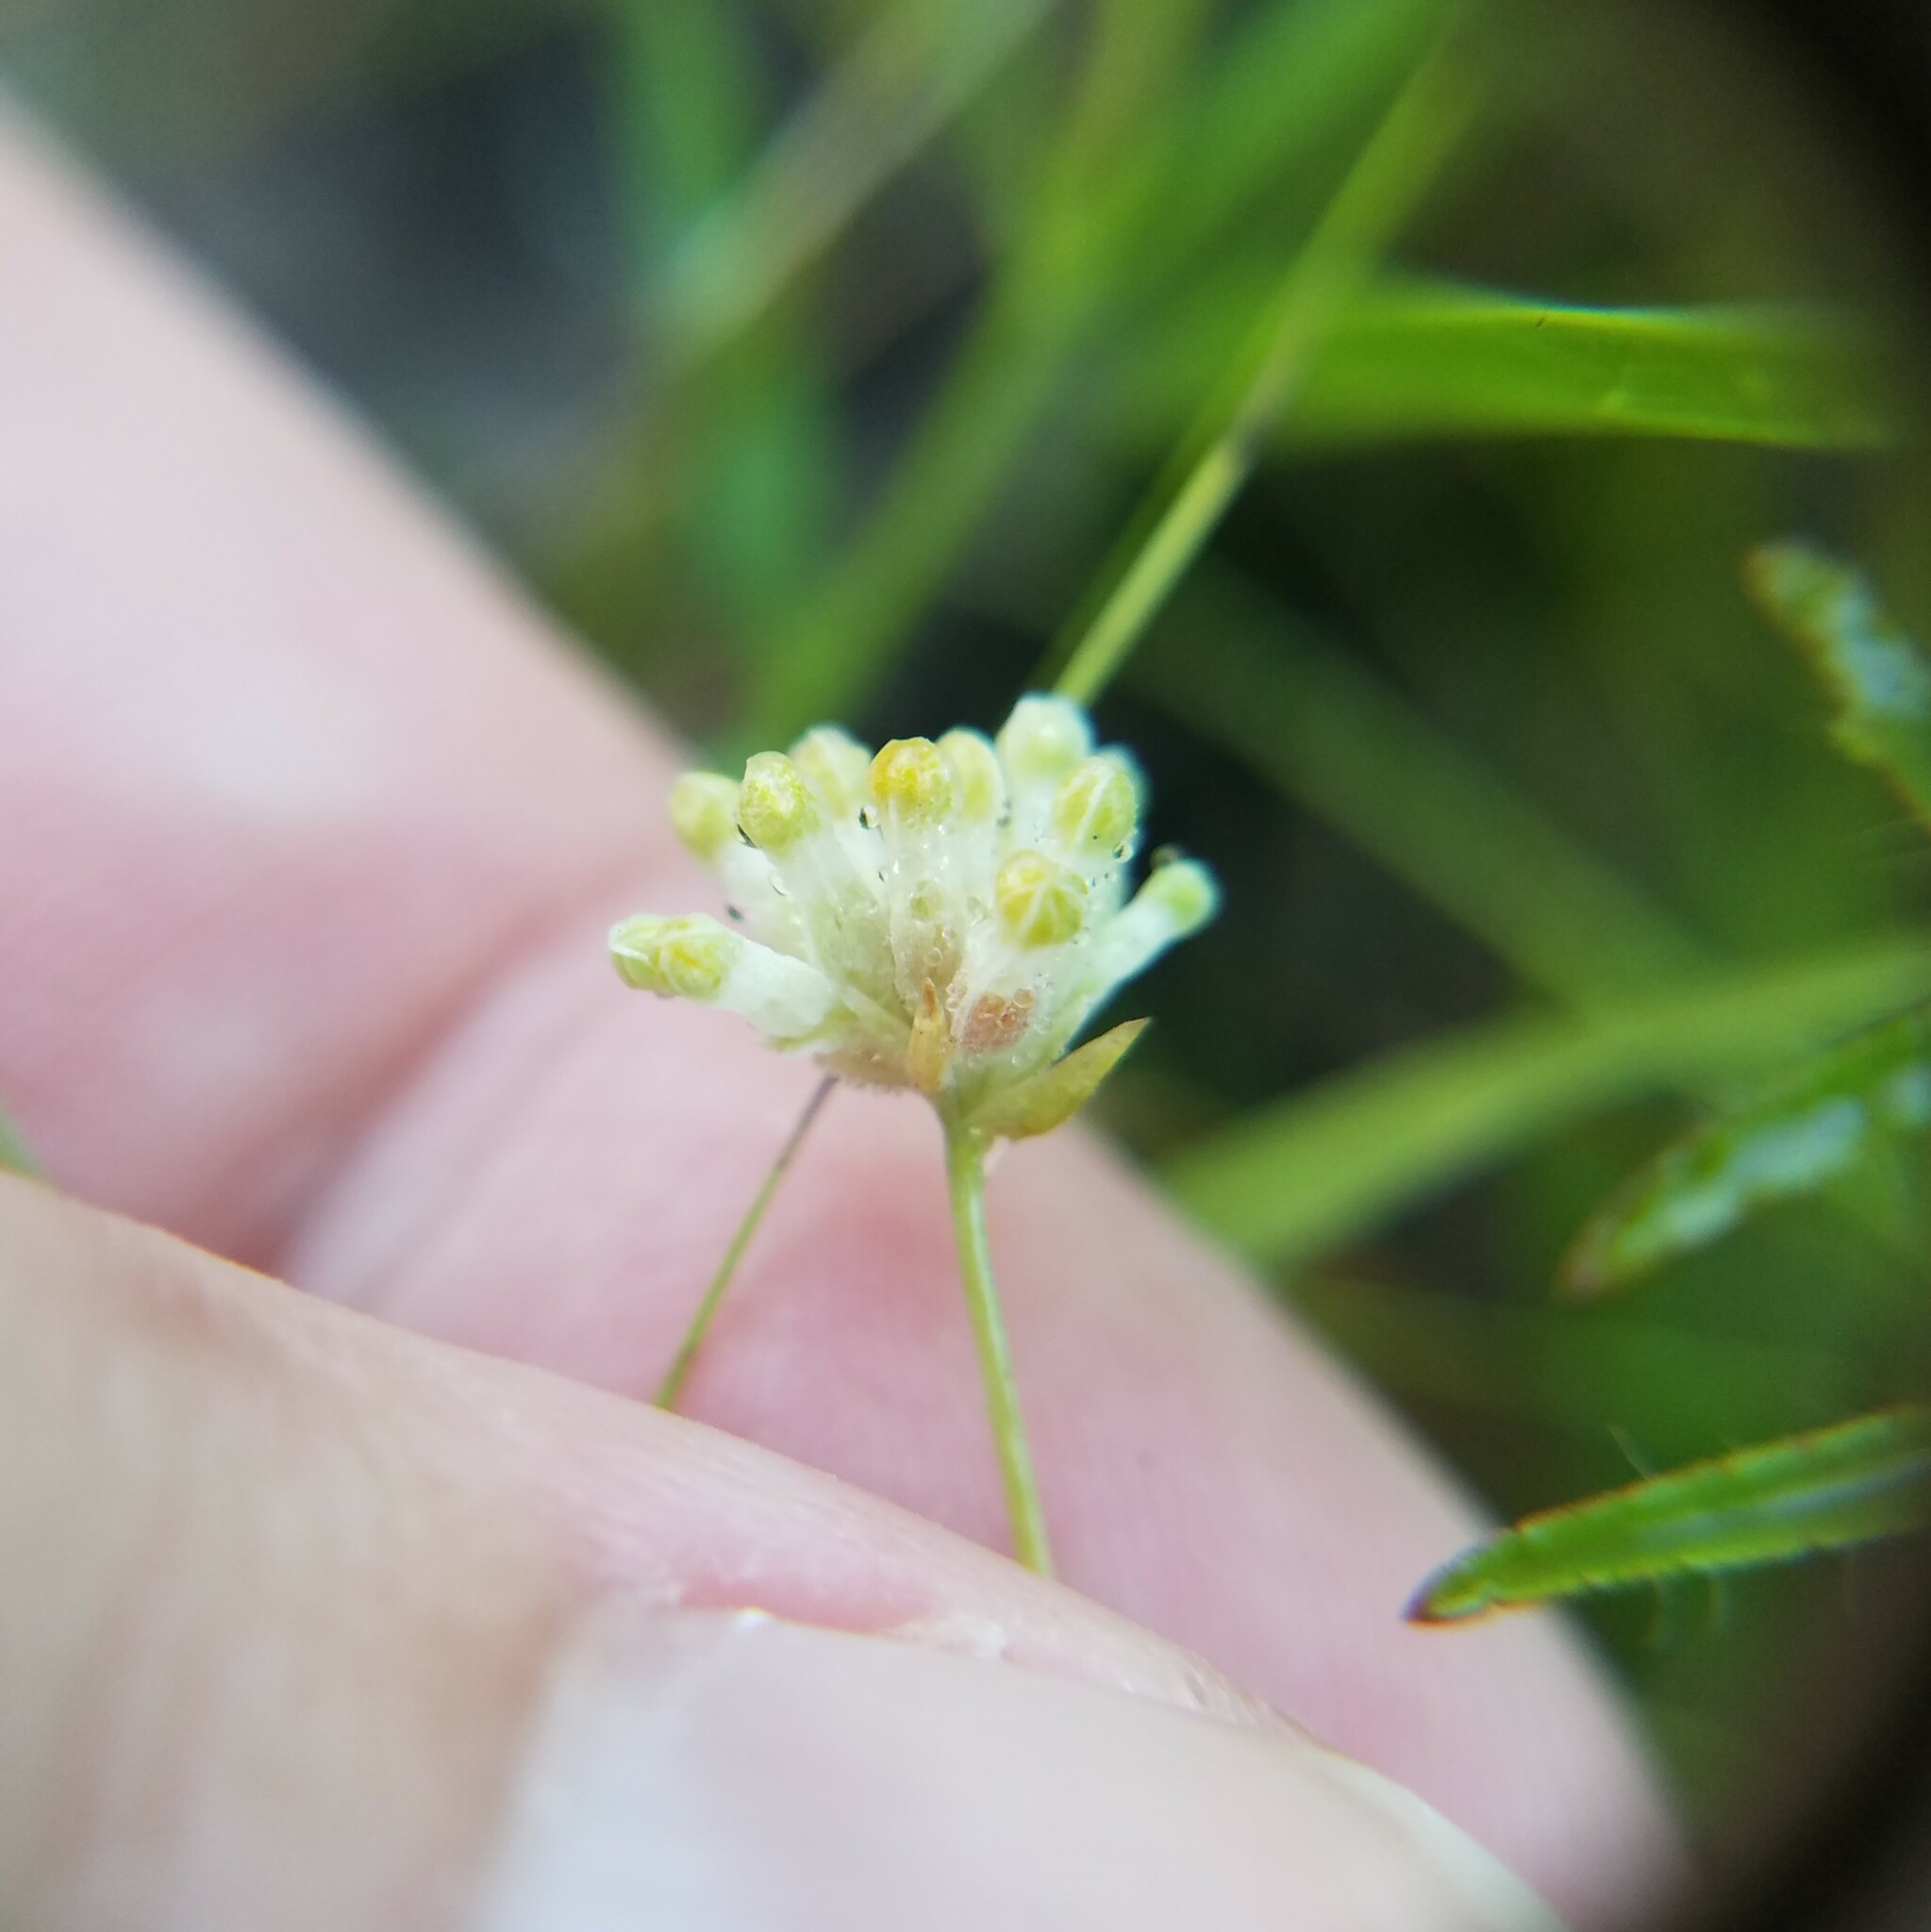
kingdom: Plantae
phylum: Tracheophyta
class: Liliopsida
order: Dioscoreales
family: Burmanniaceae
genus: Burmannia
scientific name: Burmannia capitata
